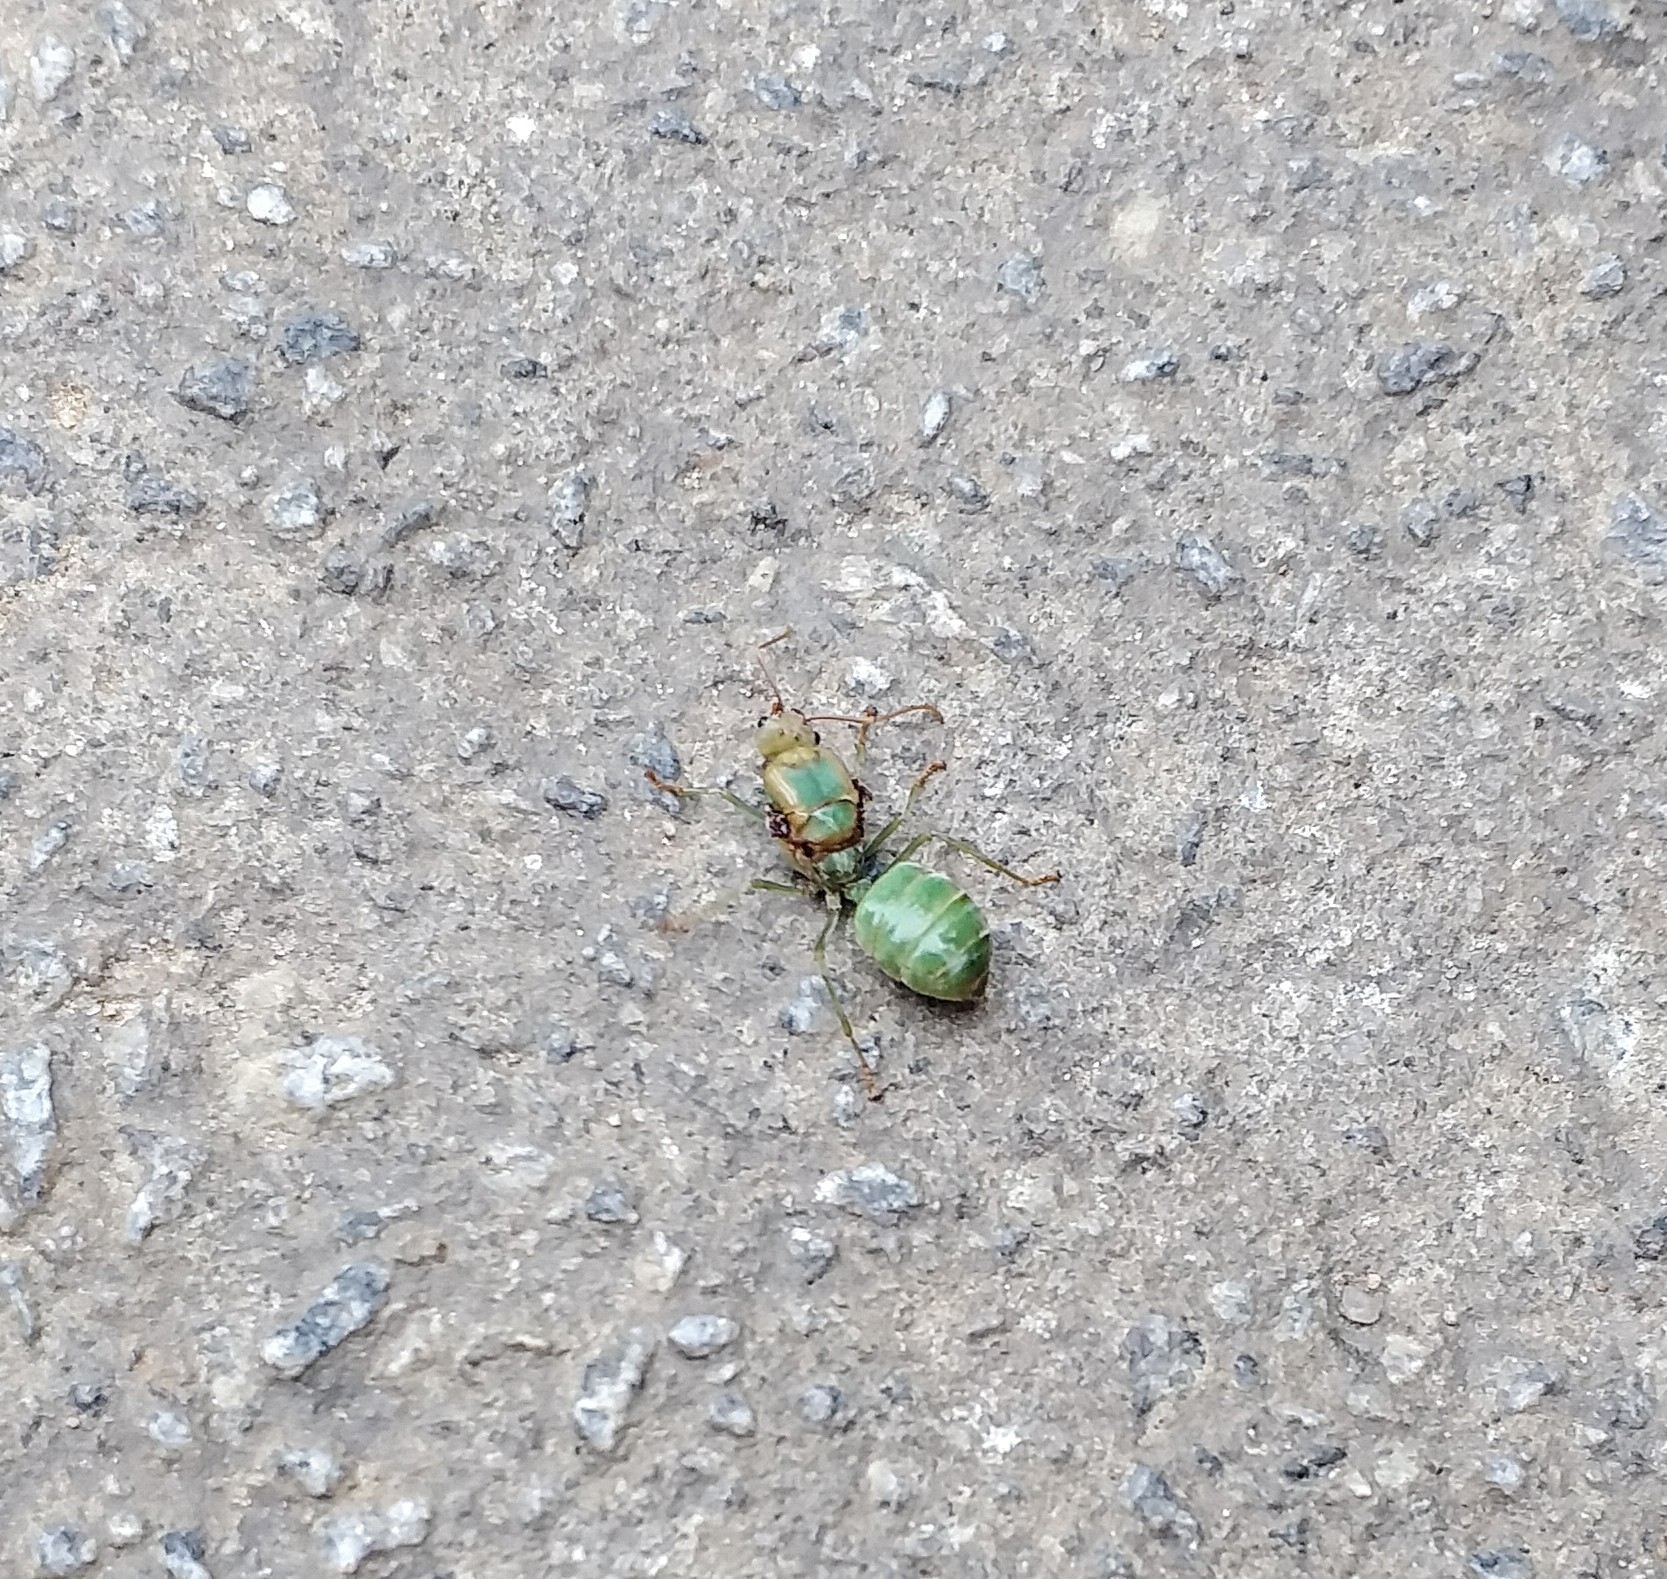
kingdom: Animalia
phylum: Arthropoda
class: Insecta
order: Hymenoptera
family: Formicidae
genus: Oecophylla
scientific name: Oecophylla smaragdina
